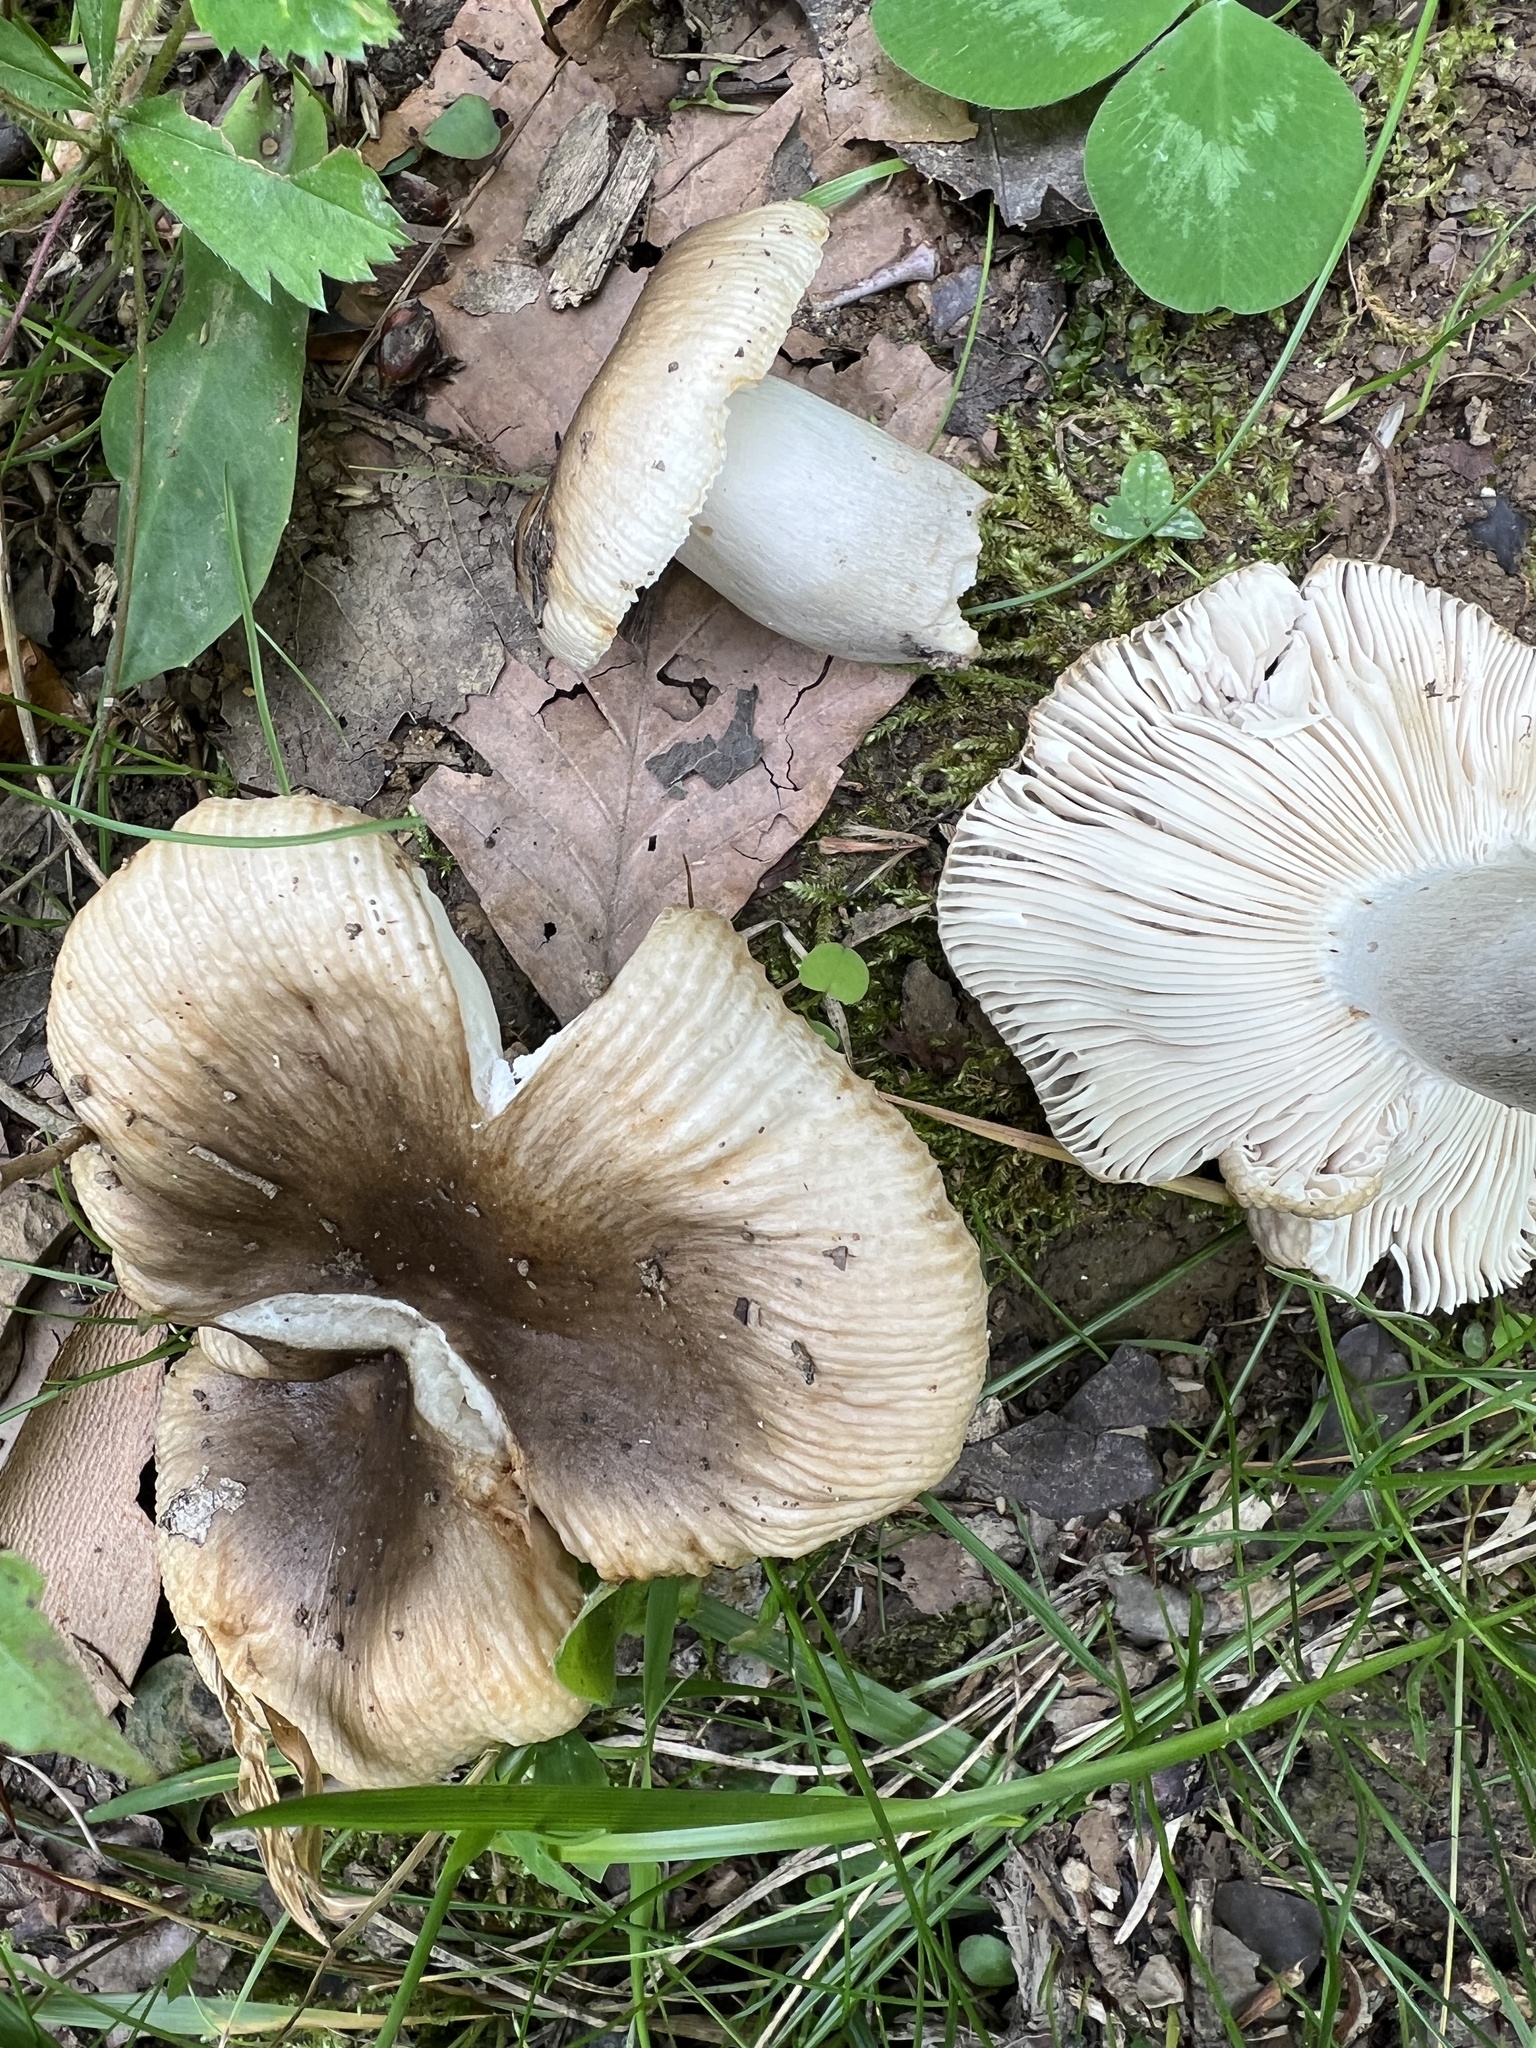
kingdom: Fungi
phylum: Basidiomycota
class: Agaricomycetes
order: Russulales
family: Russulaceae
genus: Russula
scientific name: Russula pectinatoides
